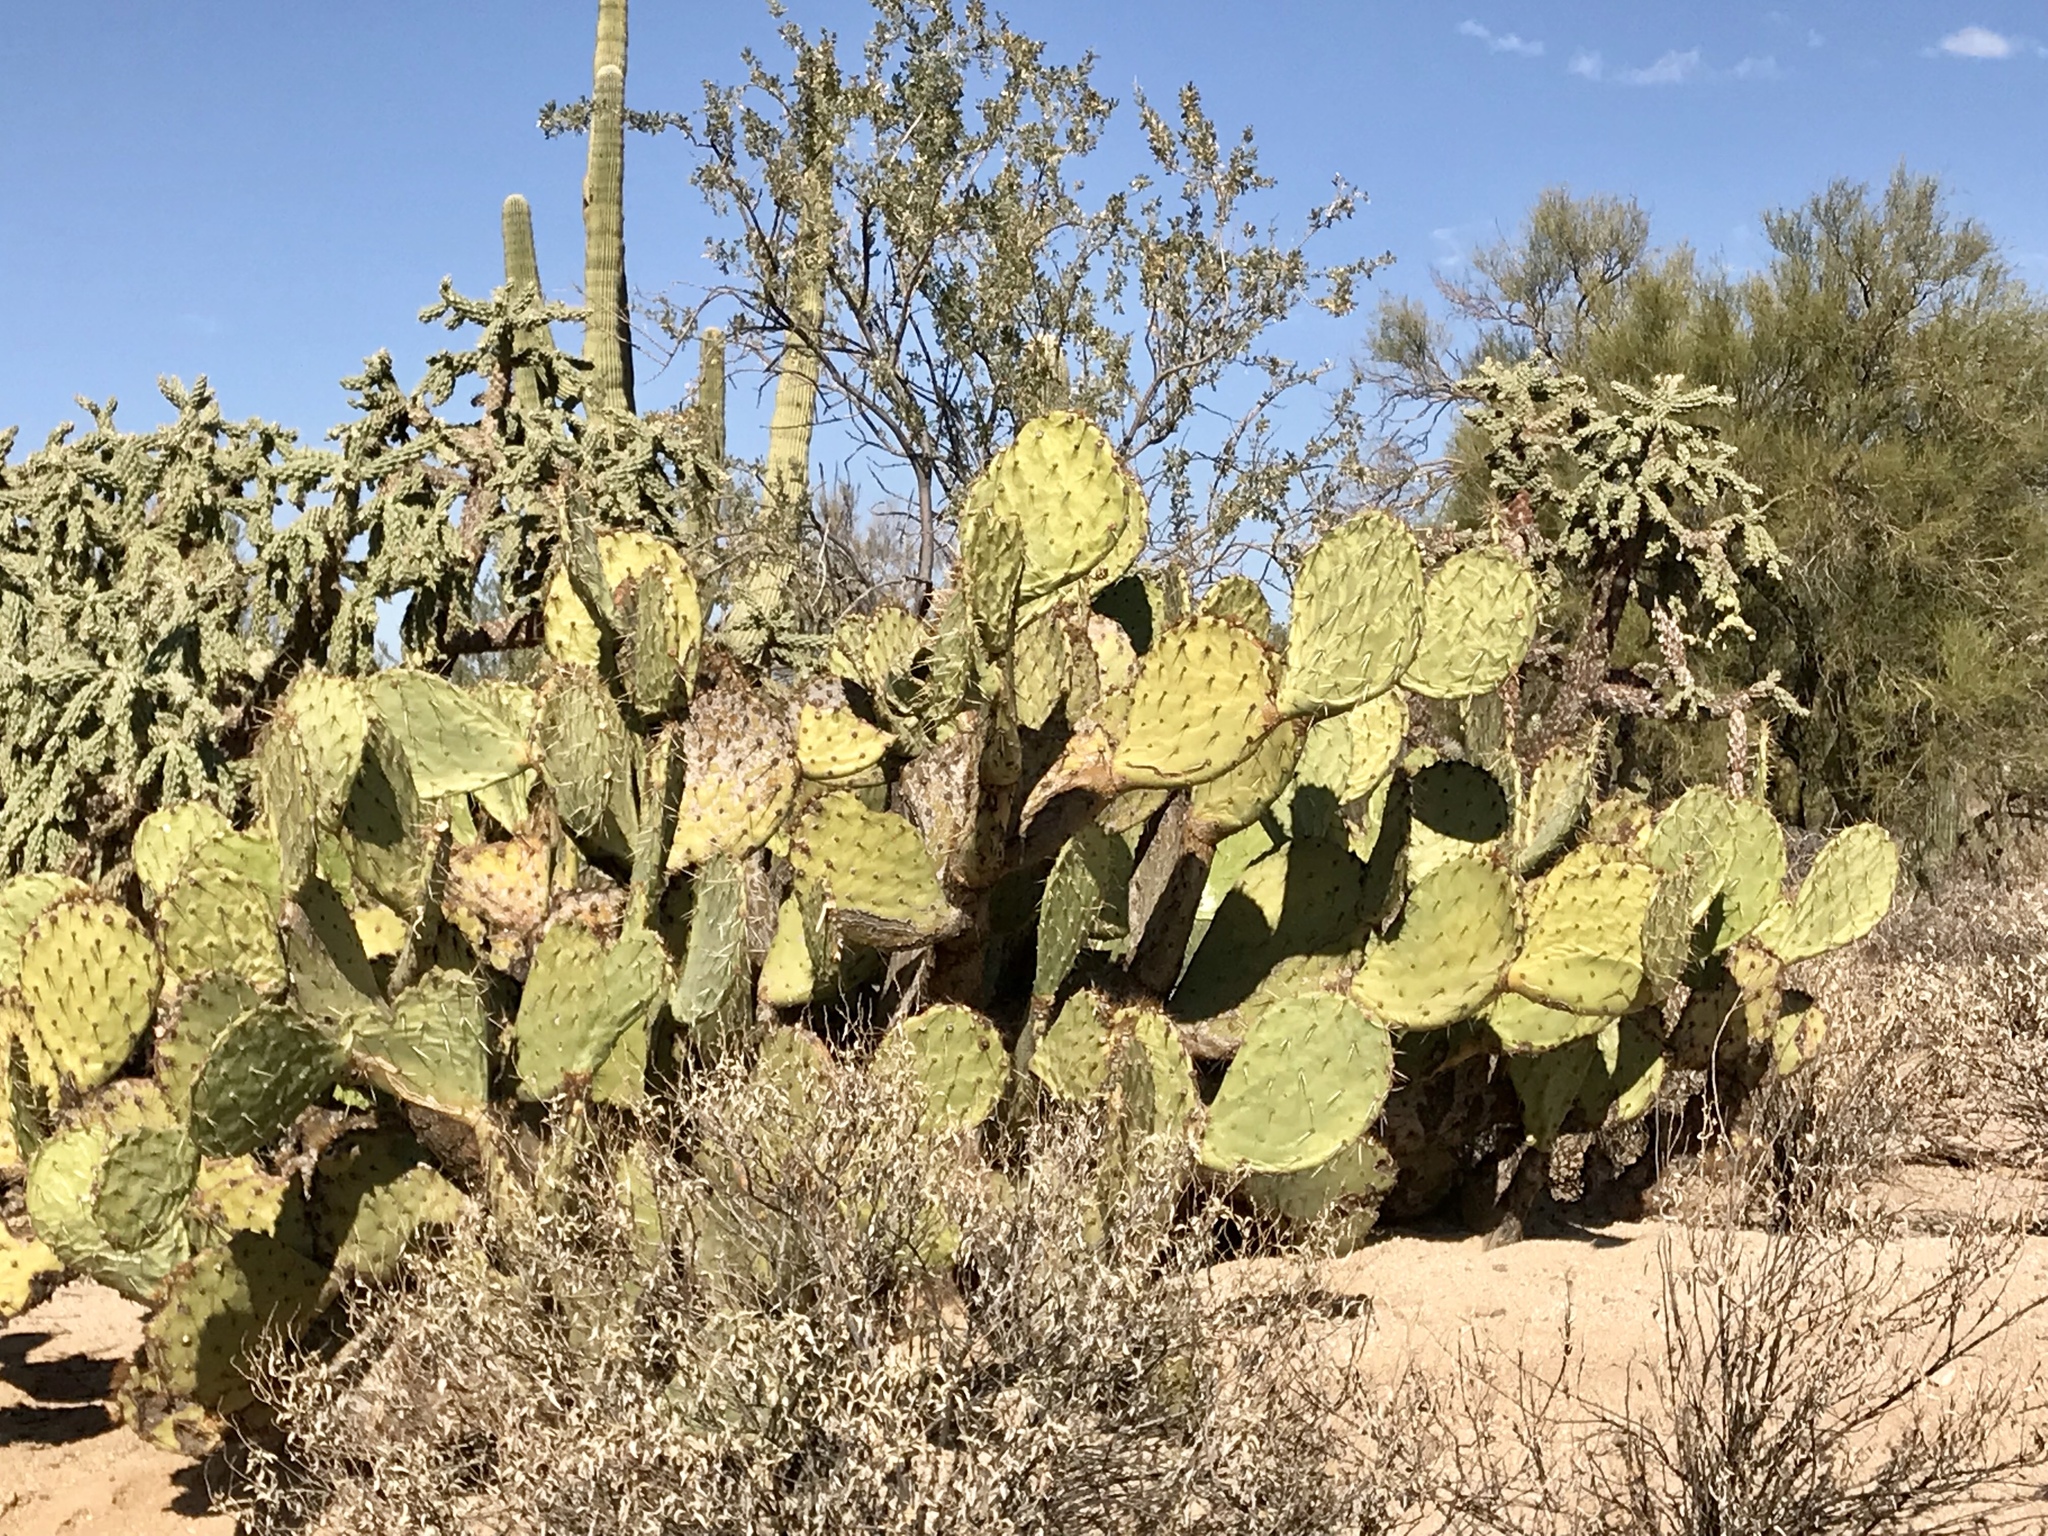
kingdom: Plantae
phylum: Tracheophyta
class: Magnoliopsida
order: Caryophyllales
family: Cactaceae
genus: Opuntia
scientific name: Opuntia engelmannii
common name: Cactus-apple
